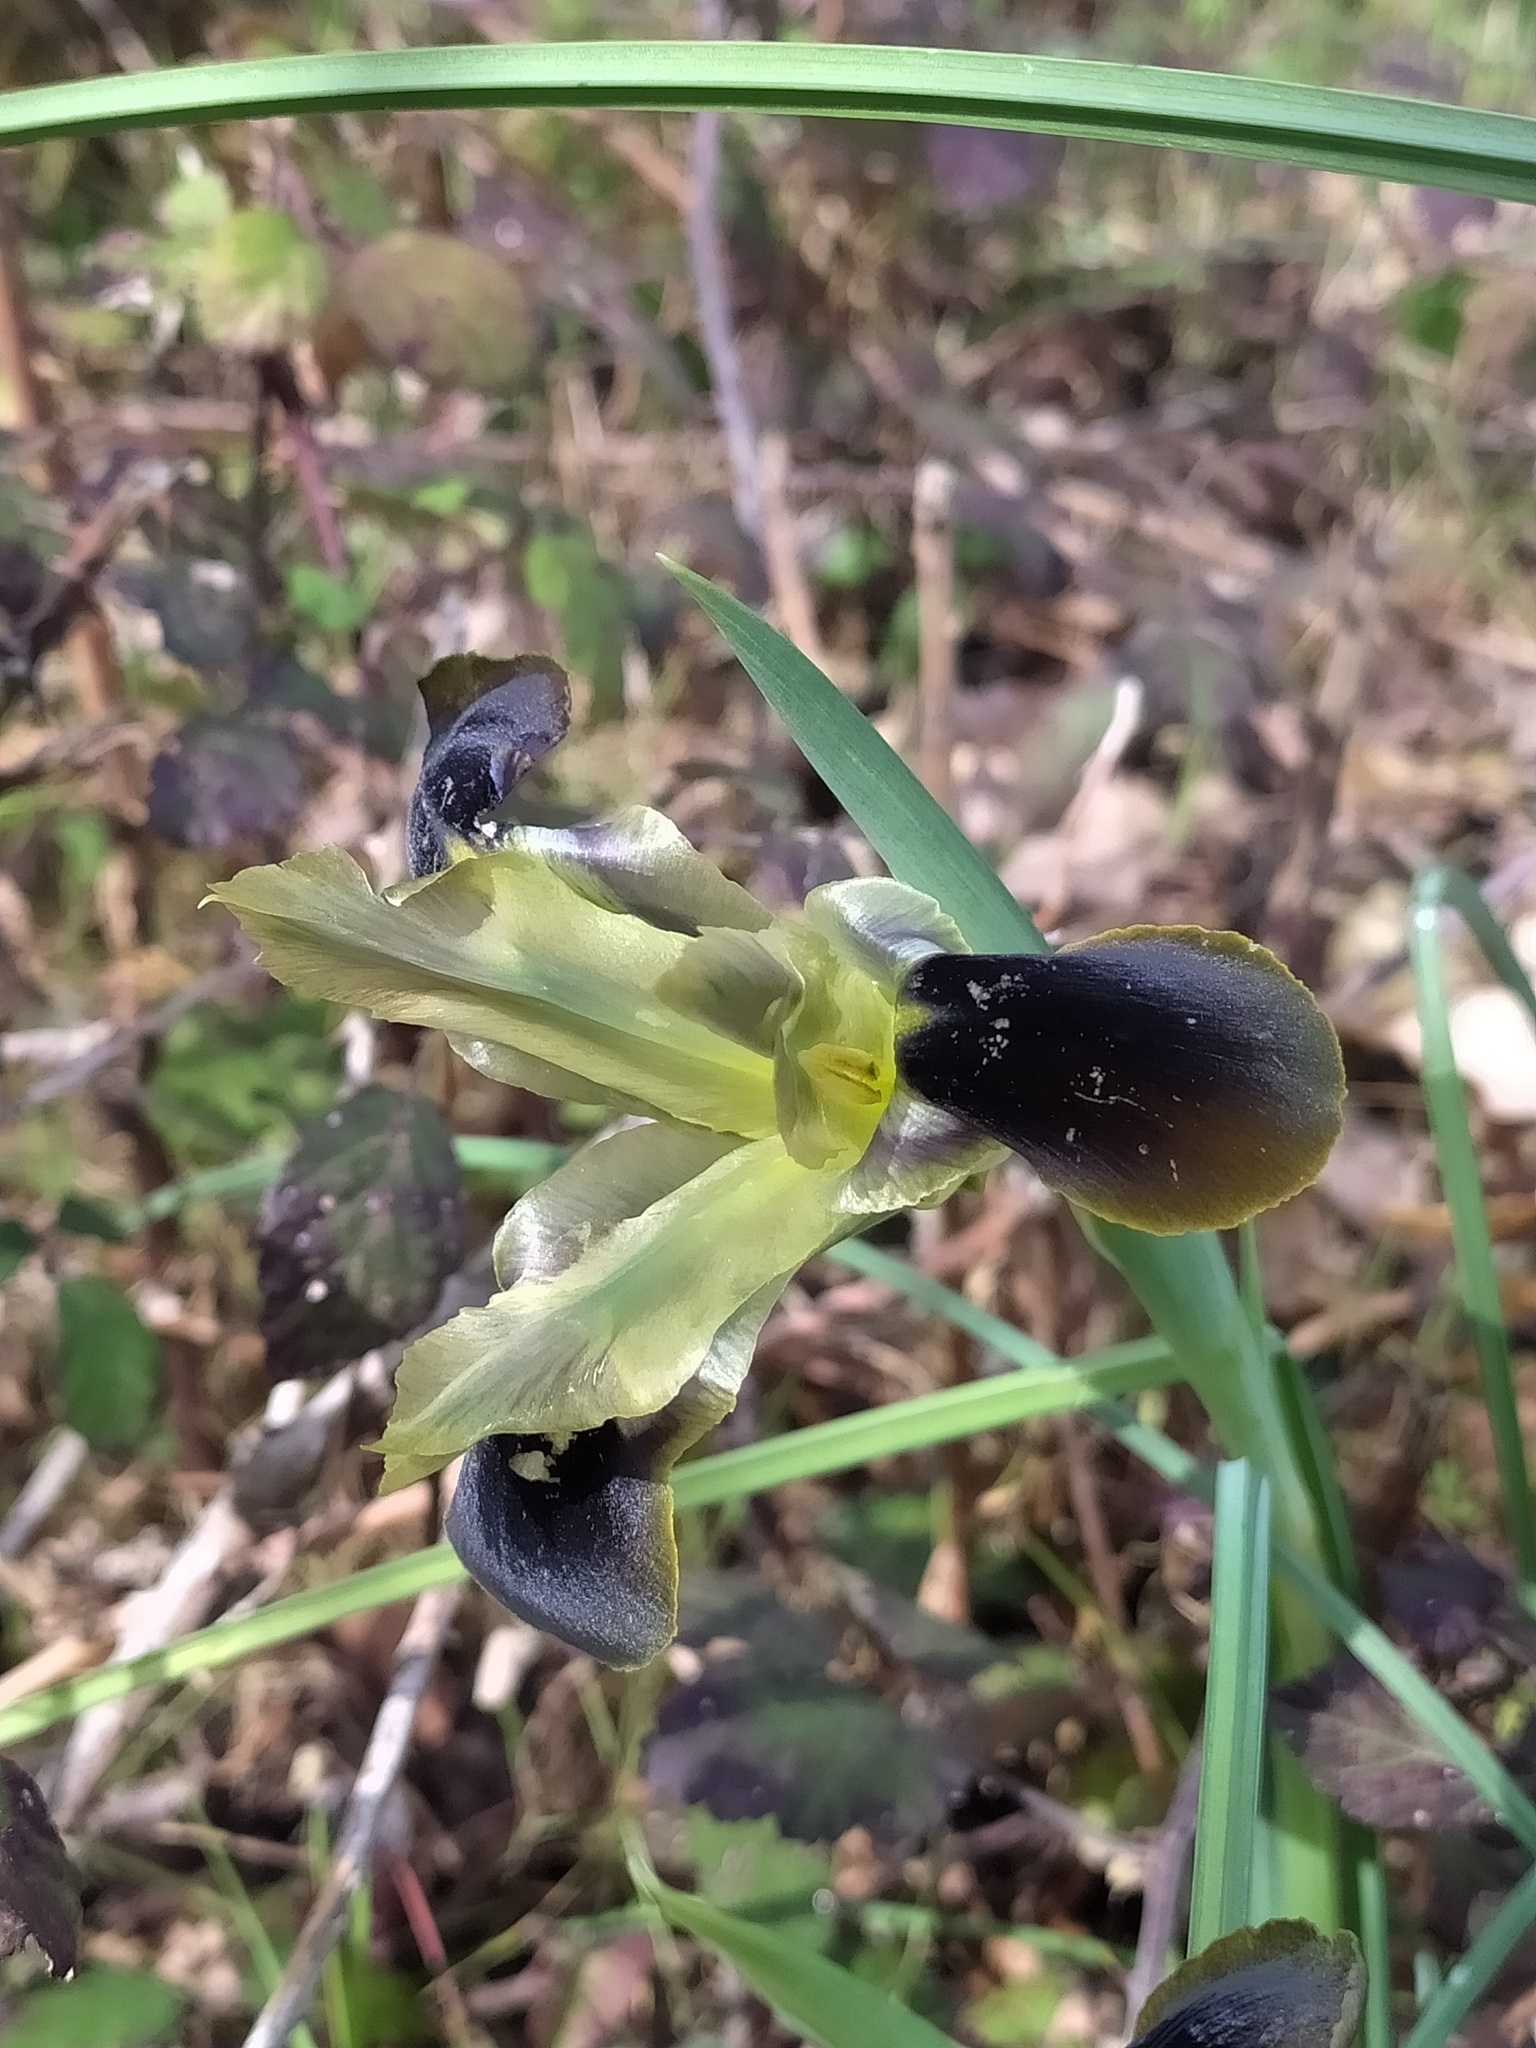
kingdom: Plantae
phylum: Tracheophyta
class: Liliopsida
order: Asparagales
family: Iridaceae
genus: Iris
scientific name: Iris tuberosa
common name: Snake's-head iris
